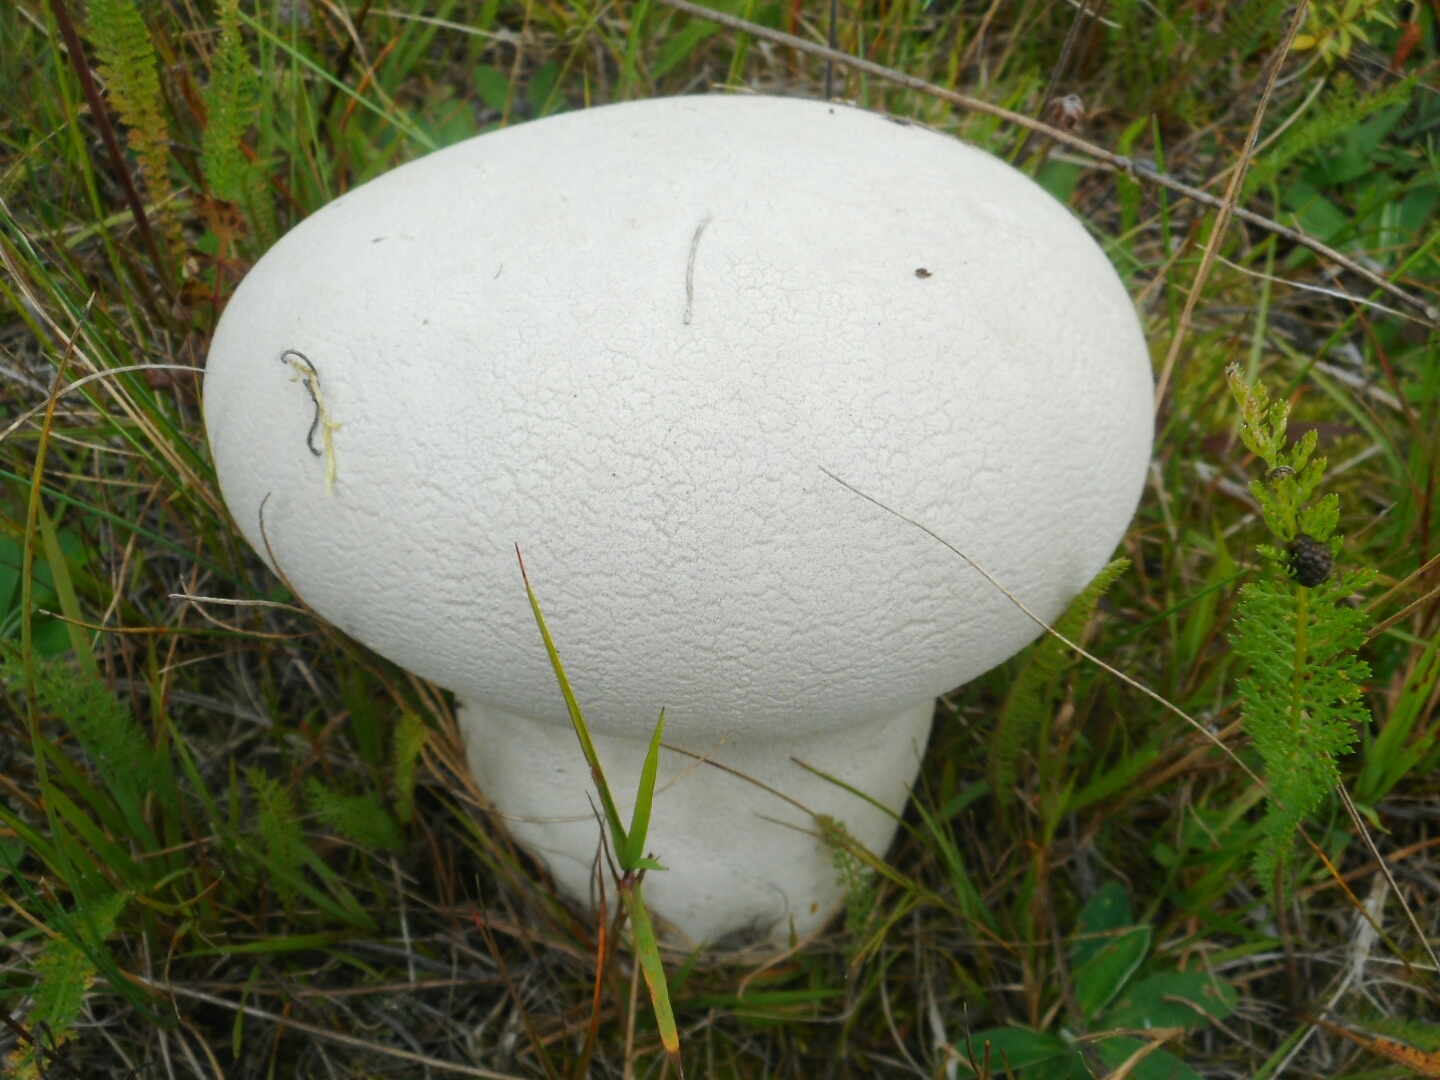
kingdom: Fungi
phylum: Basidiomycota
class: Agaricomycetes
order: Agaricales
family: Lycoperdaceae
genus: Bovistella
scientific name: Bovistella utriformis
